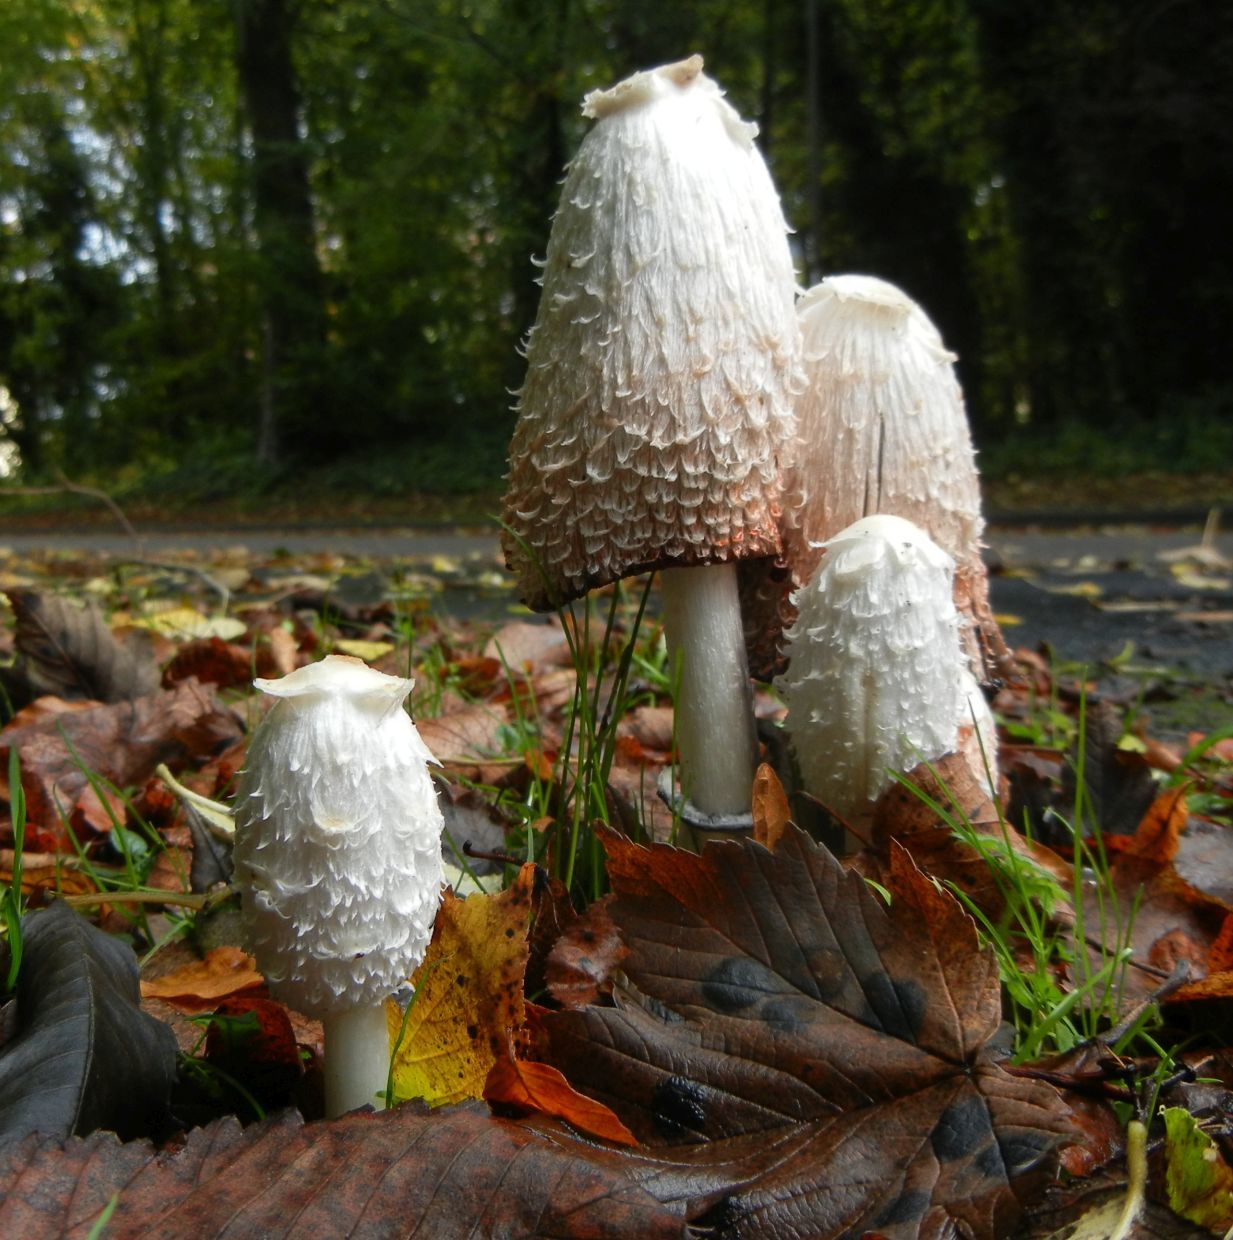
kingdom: Fungi
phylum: Basidiomycota
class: Agaricomycetes
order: Agaricales
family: Agaricaceae
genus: Coprinus
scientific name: Coprinus comatus
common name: Lawyer's wig
